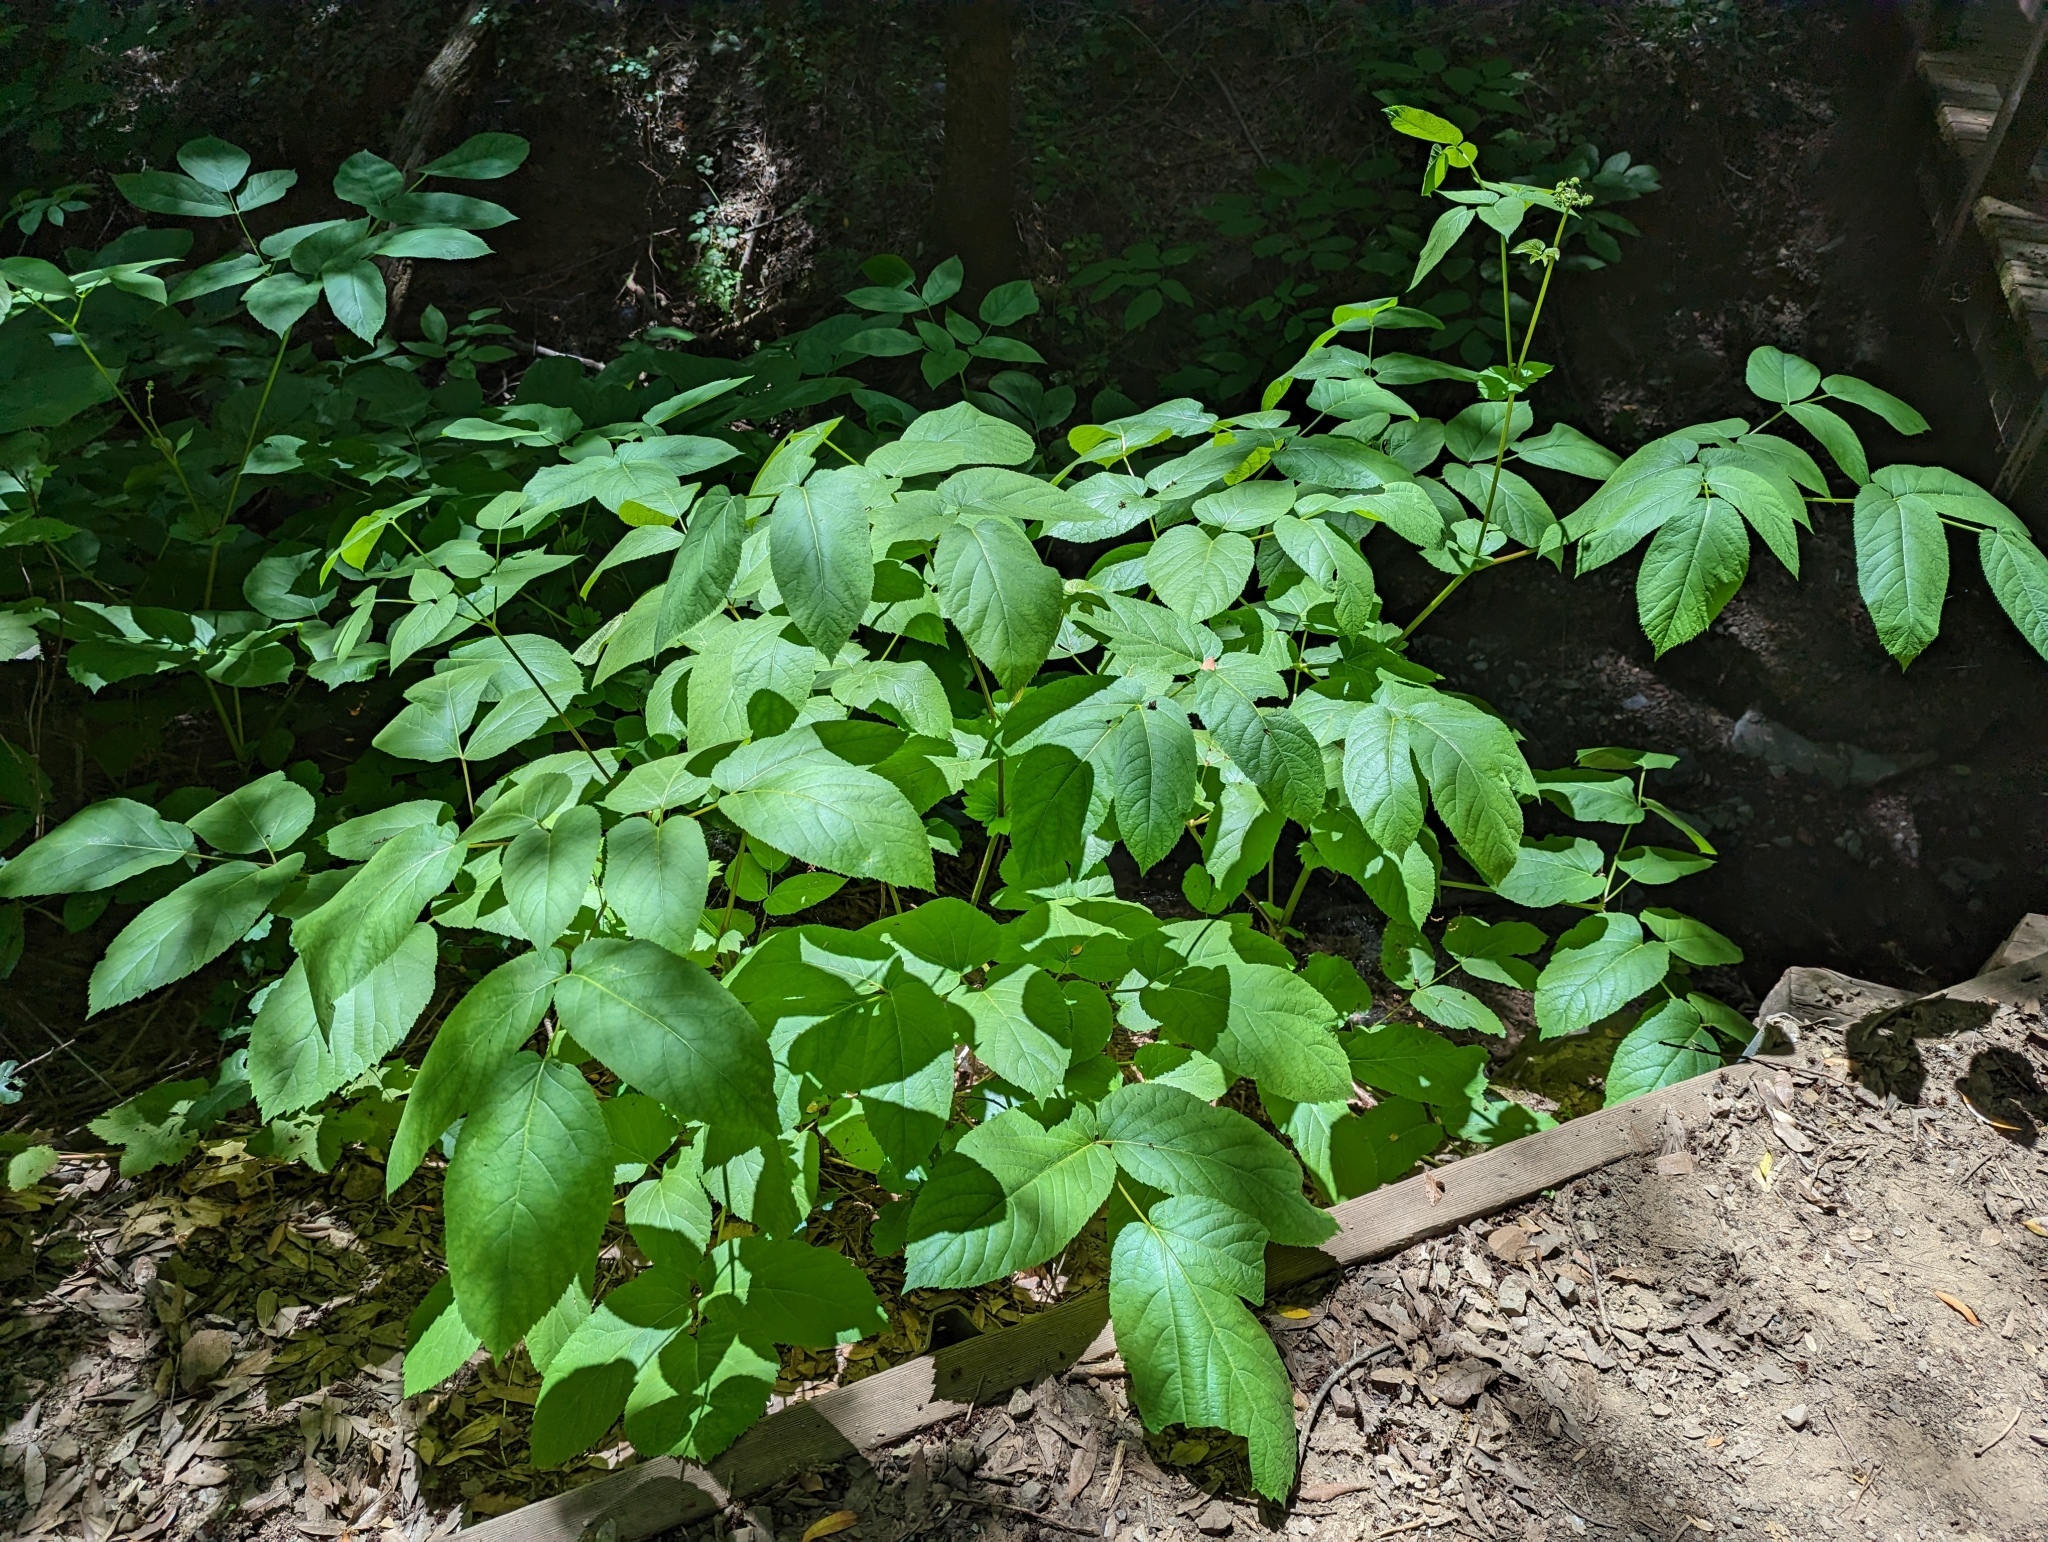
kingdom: Plantae
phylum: Tracheophyta
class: Magnoliopsida
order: Apiales
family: Araliaceae
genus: Aralia
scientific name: Aralia californica
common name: California-ginseng
